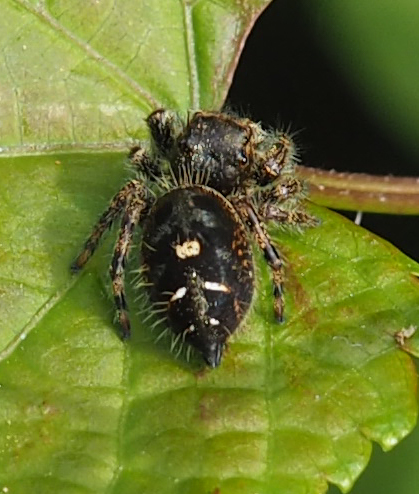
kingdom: Animalia
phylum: Arthropoda
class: Arachnida
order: Araneae
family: Salticidae
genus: Phidippus
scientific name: Phidippus audax
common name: Bold jumper
